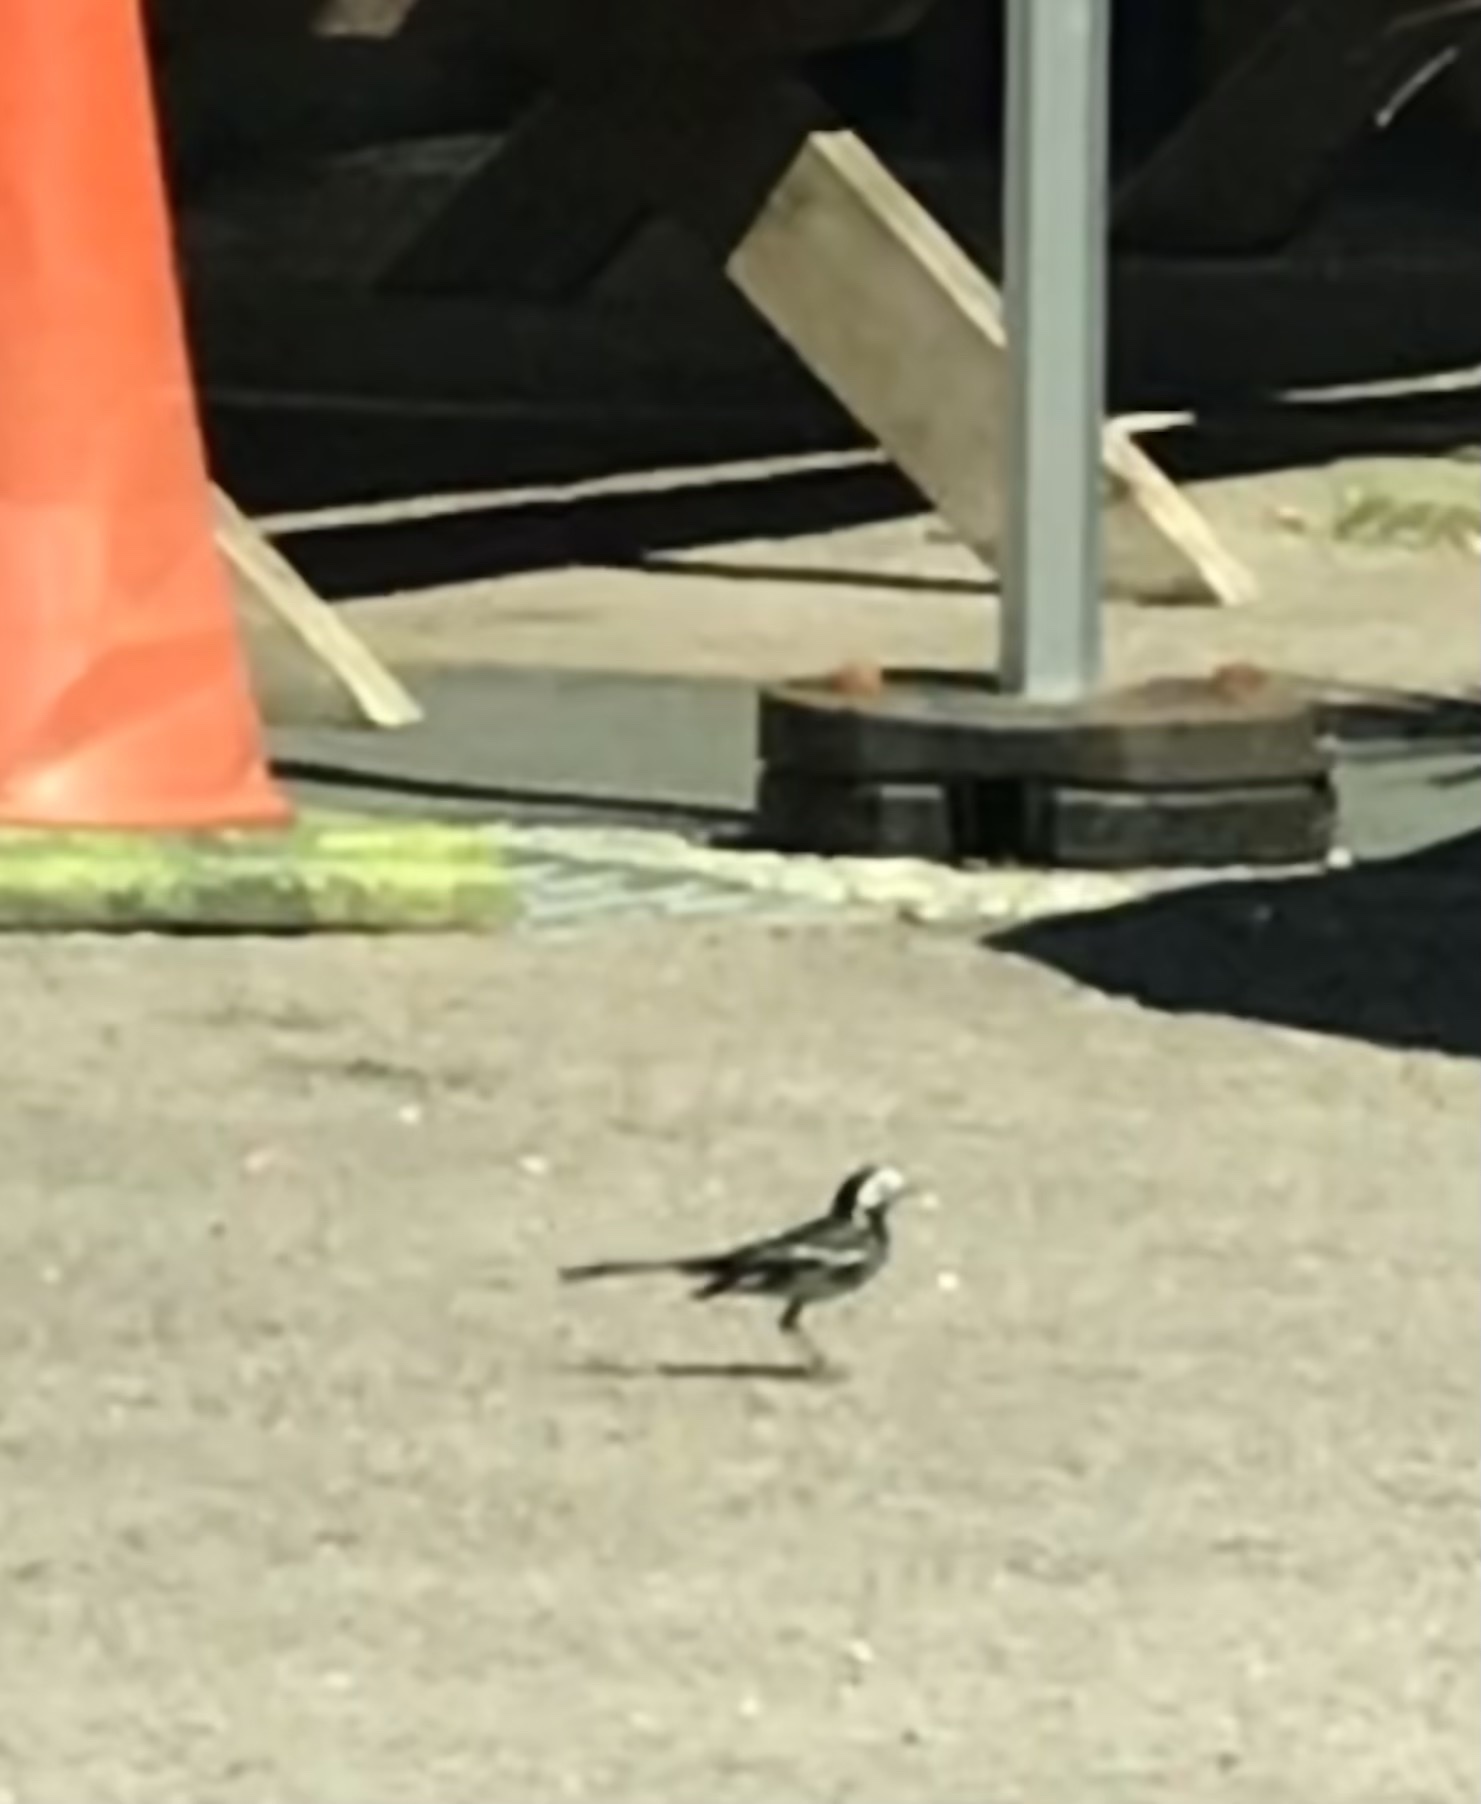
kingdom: Animalia
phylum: Chordata
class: Aves
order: Passeriformes
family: Motacillidae
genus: Motacilla
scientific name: Motacilla alba
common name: White wagtail
